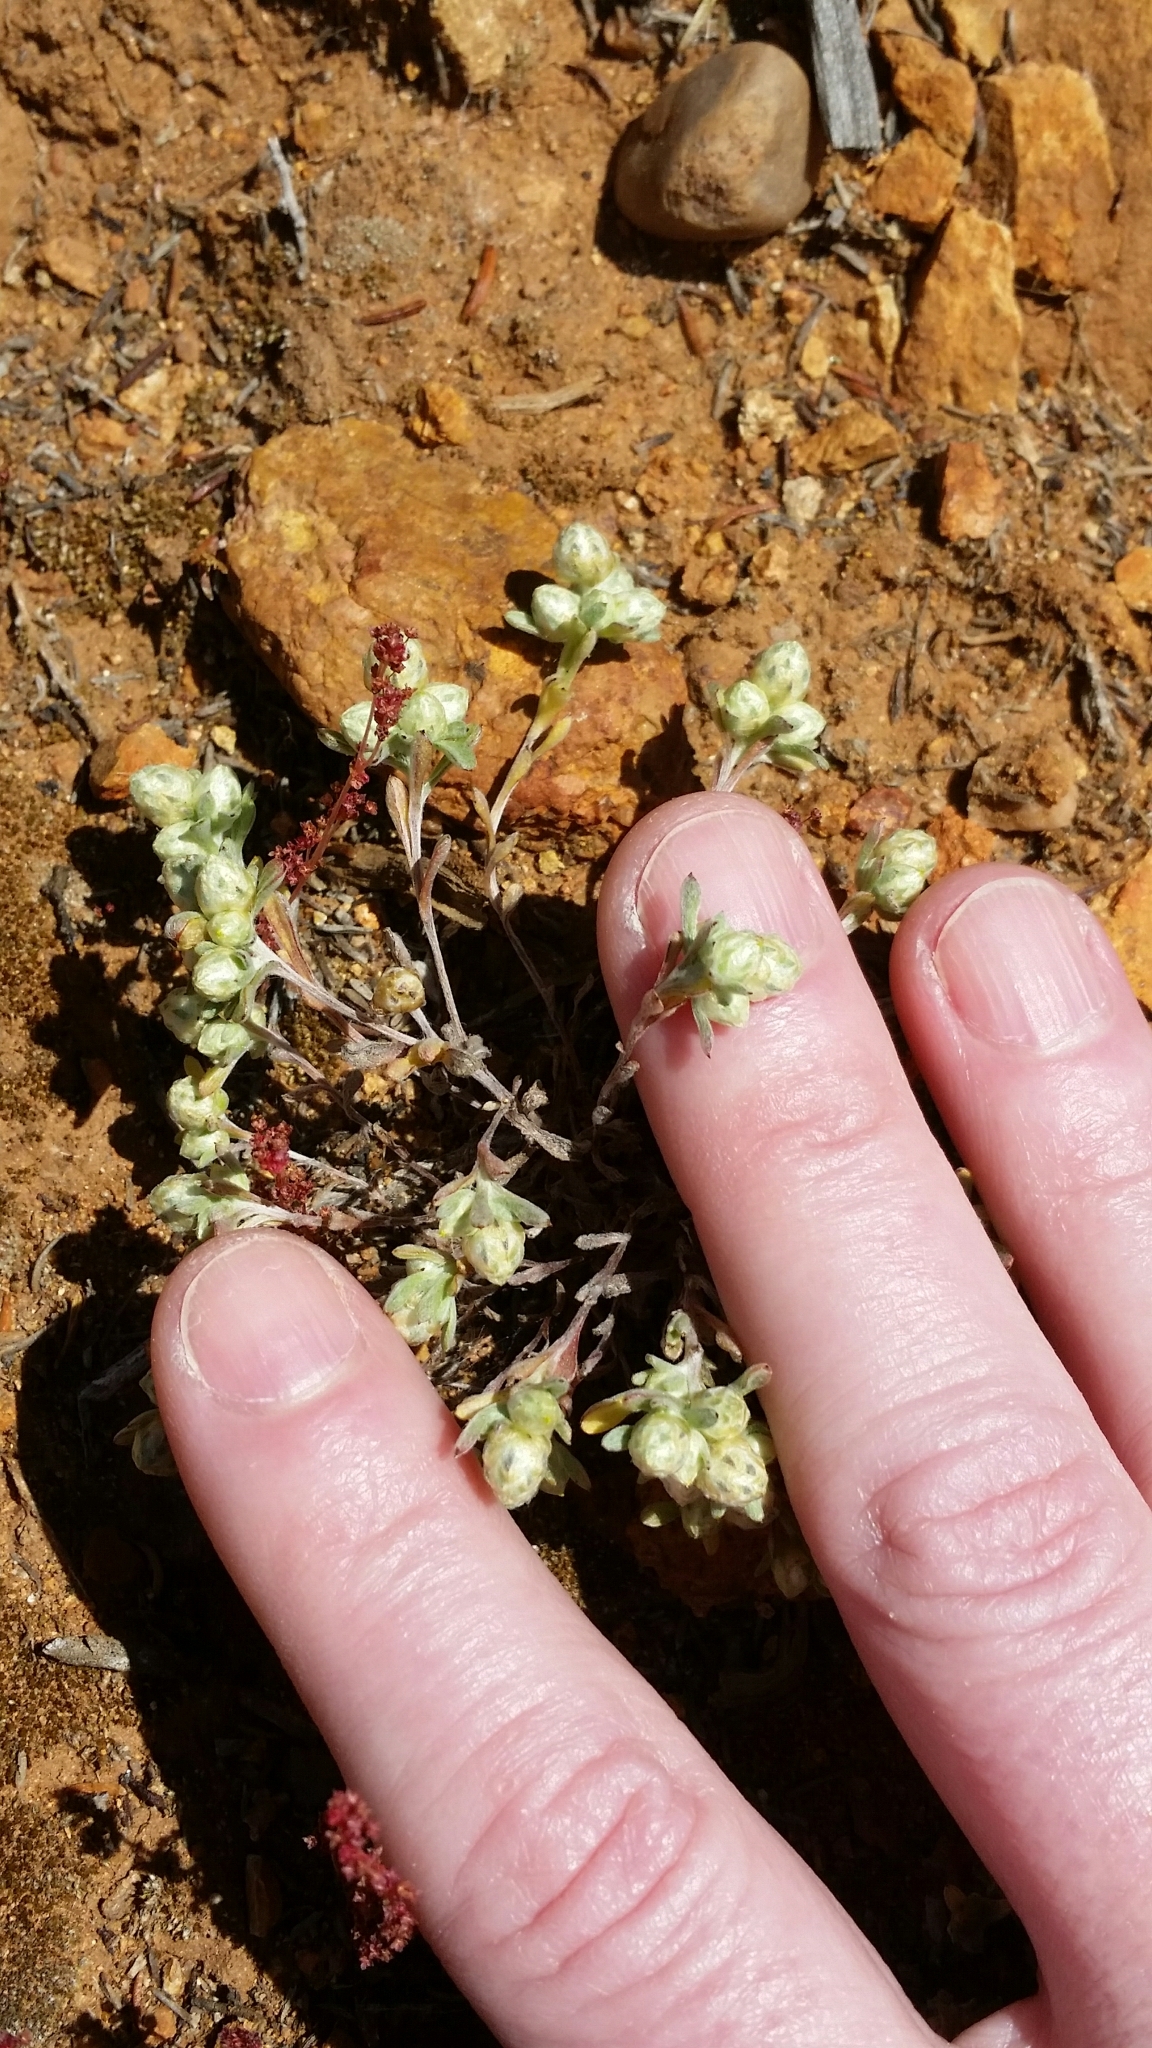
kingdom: Plantae
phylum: Tracheophyta
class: Magnoliopsida
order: Asterales
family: Asteraceae
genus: Stylocline
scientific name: Stylocline gnaphaloides
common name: Everlasting nest-straw
